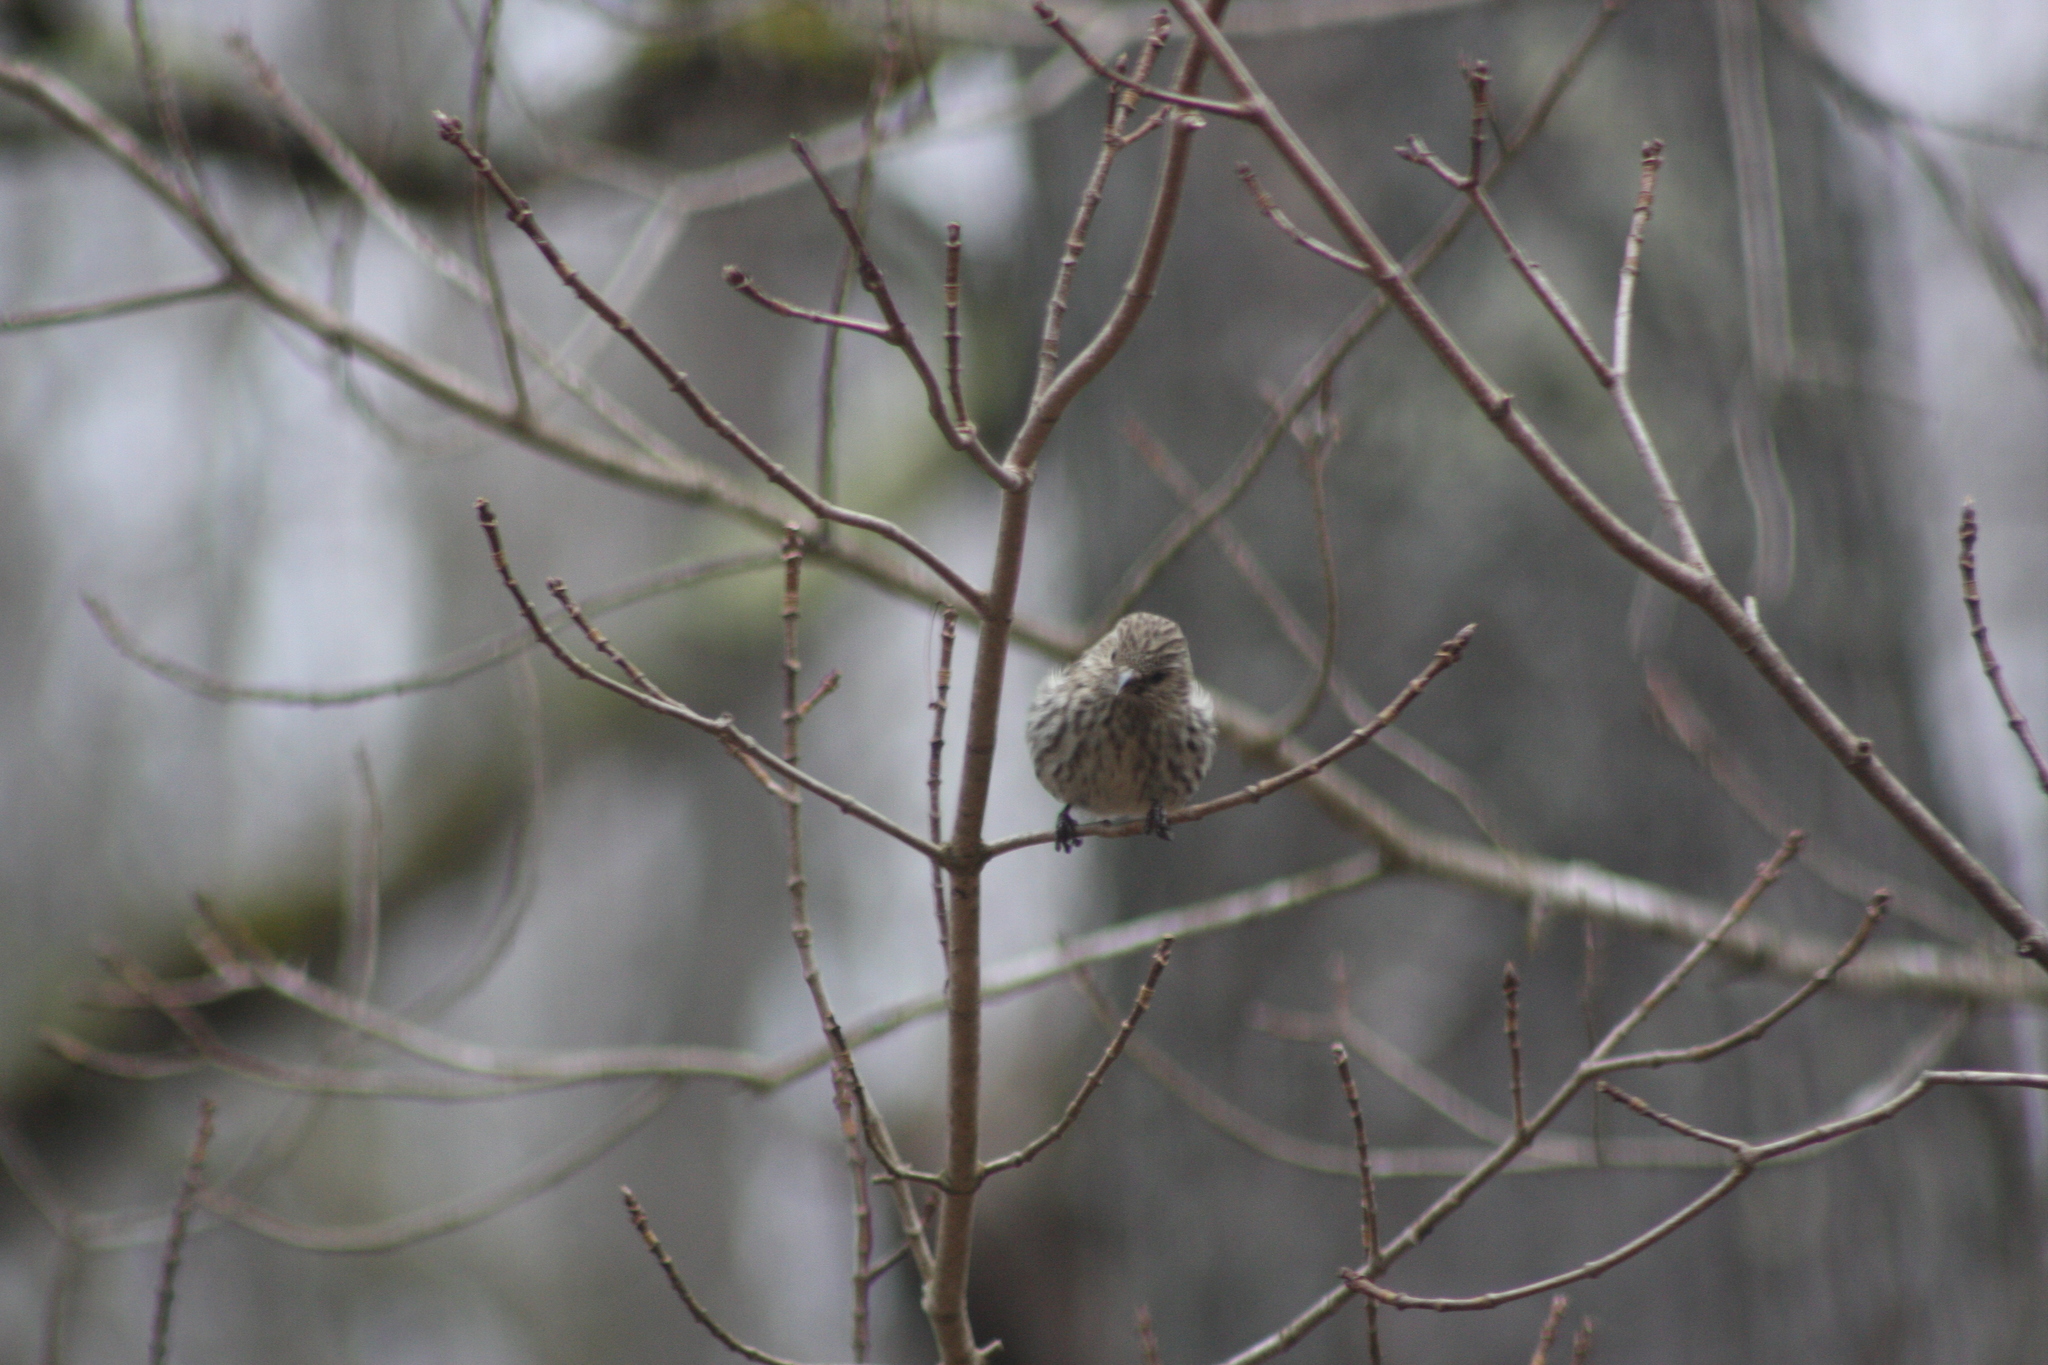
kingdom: Animalia
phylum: Chordata
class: Aves
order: Passeriformes
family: Fringillidae
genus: Spinus
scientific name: Spinus pinus
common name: Pine siskin
